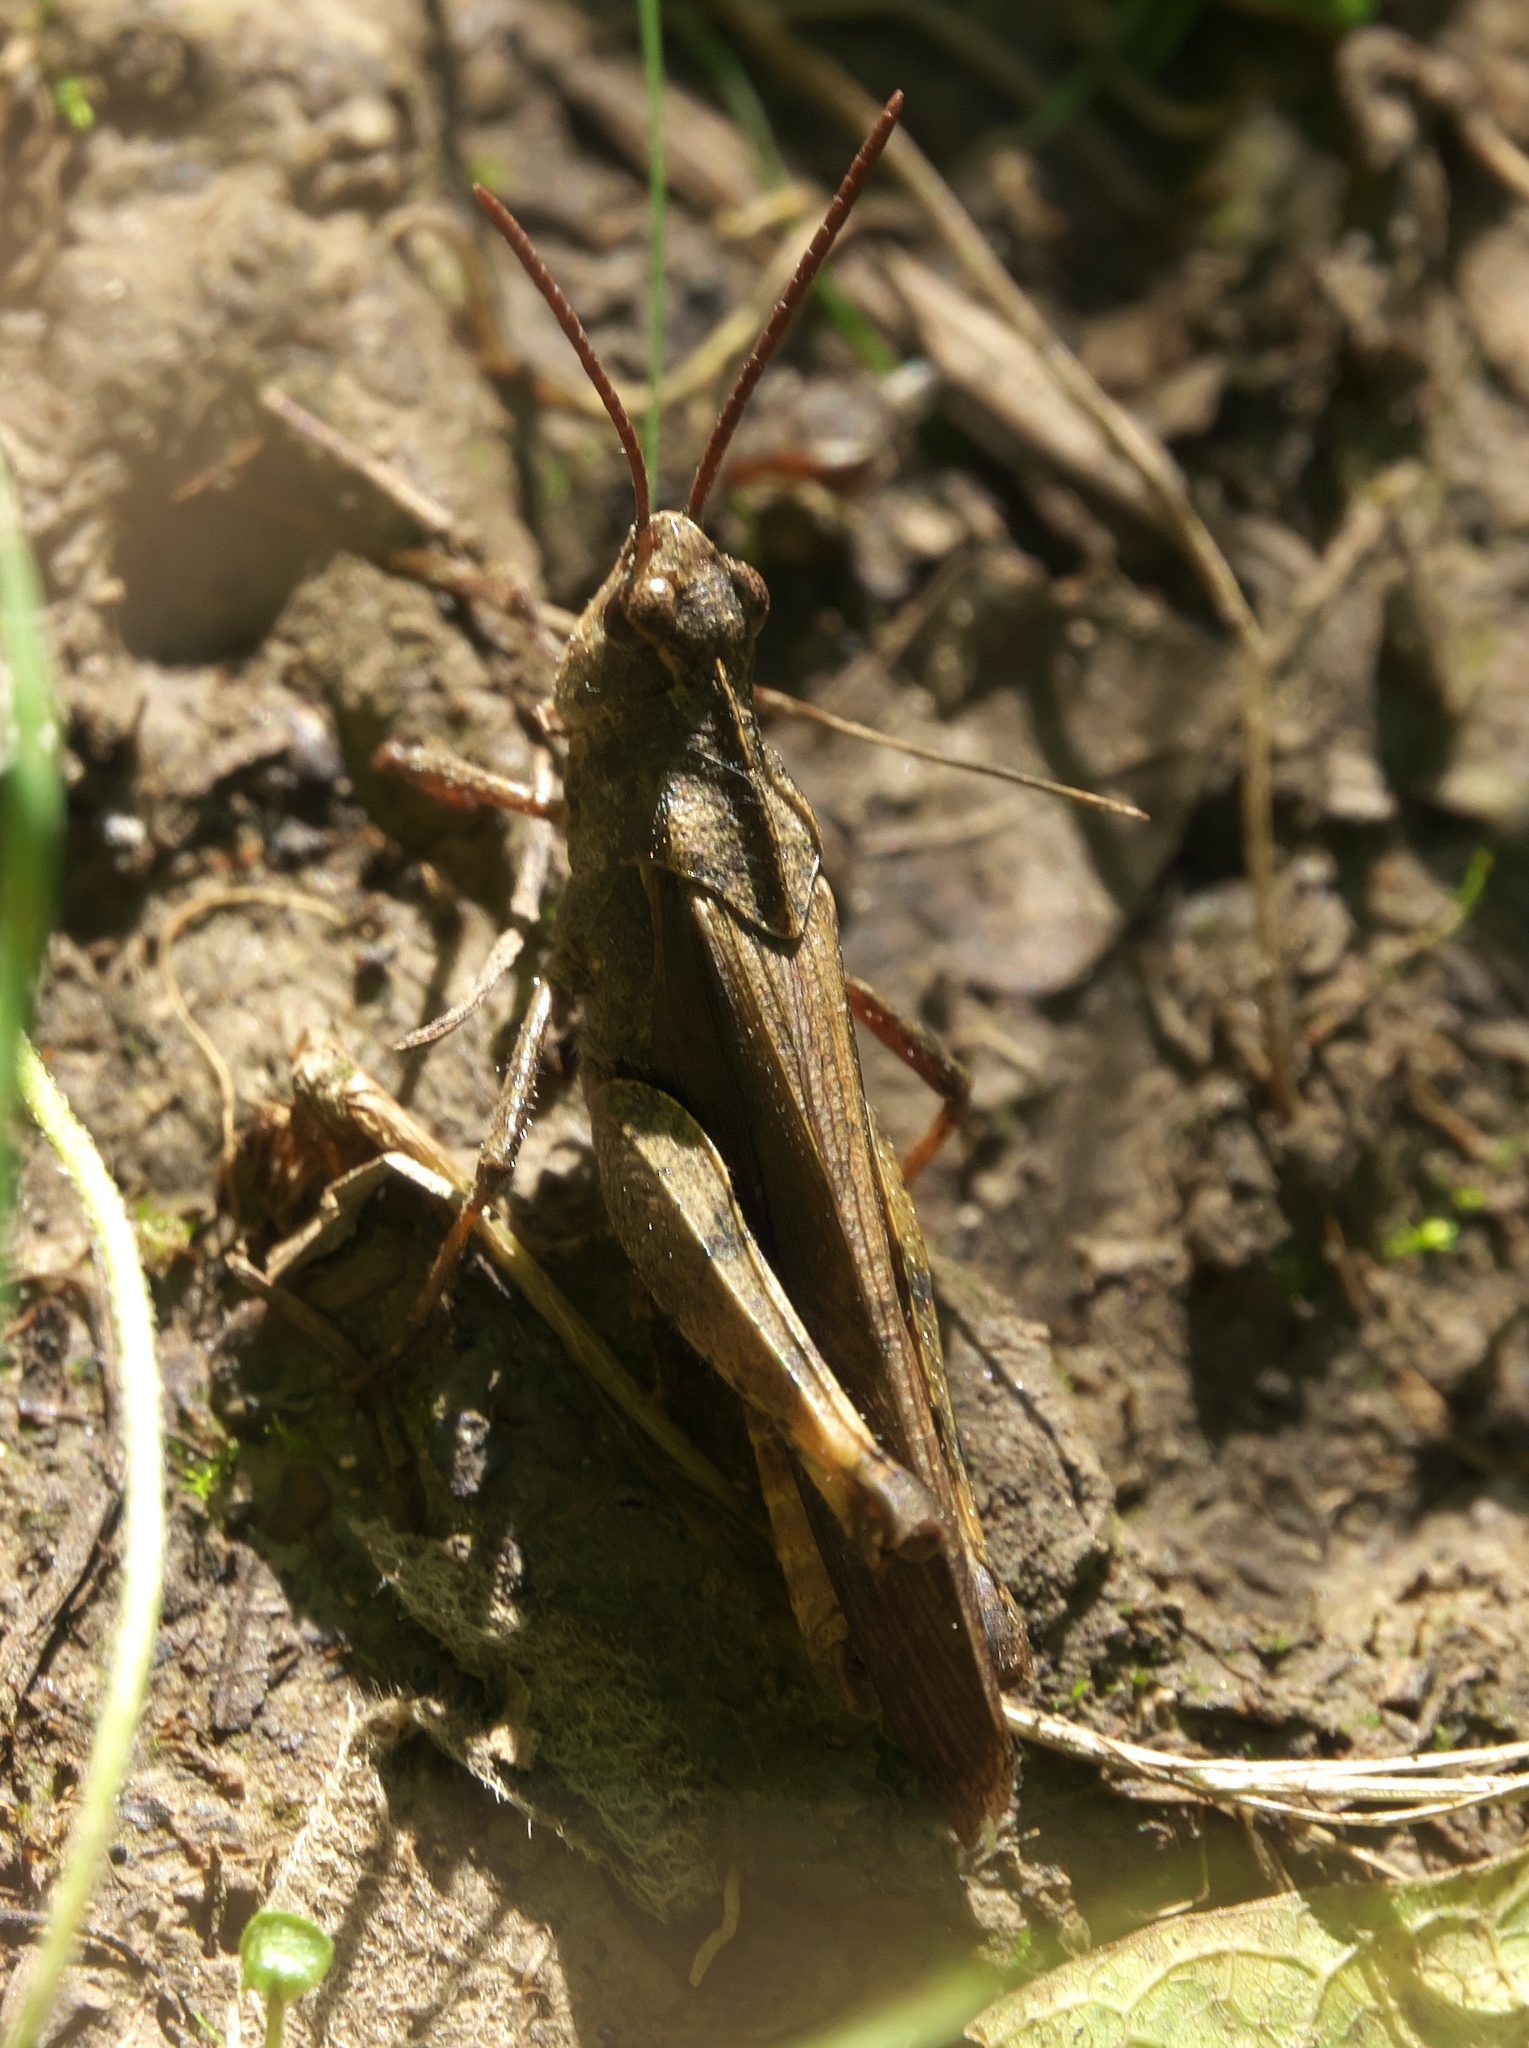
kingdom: Animalia
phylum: Arthropoda
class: Insecta
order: Orthoptera
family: Acrididae
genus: Chortophaga
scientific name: Chortophaga viridifasciata
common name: Green-striped grasshopper
